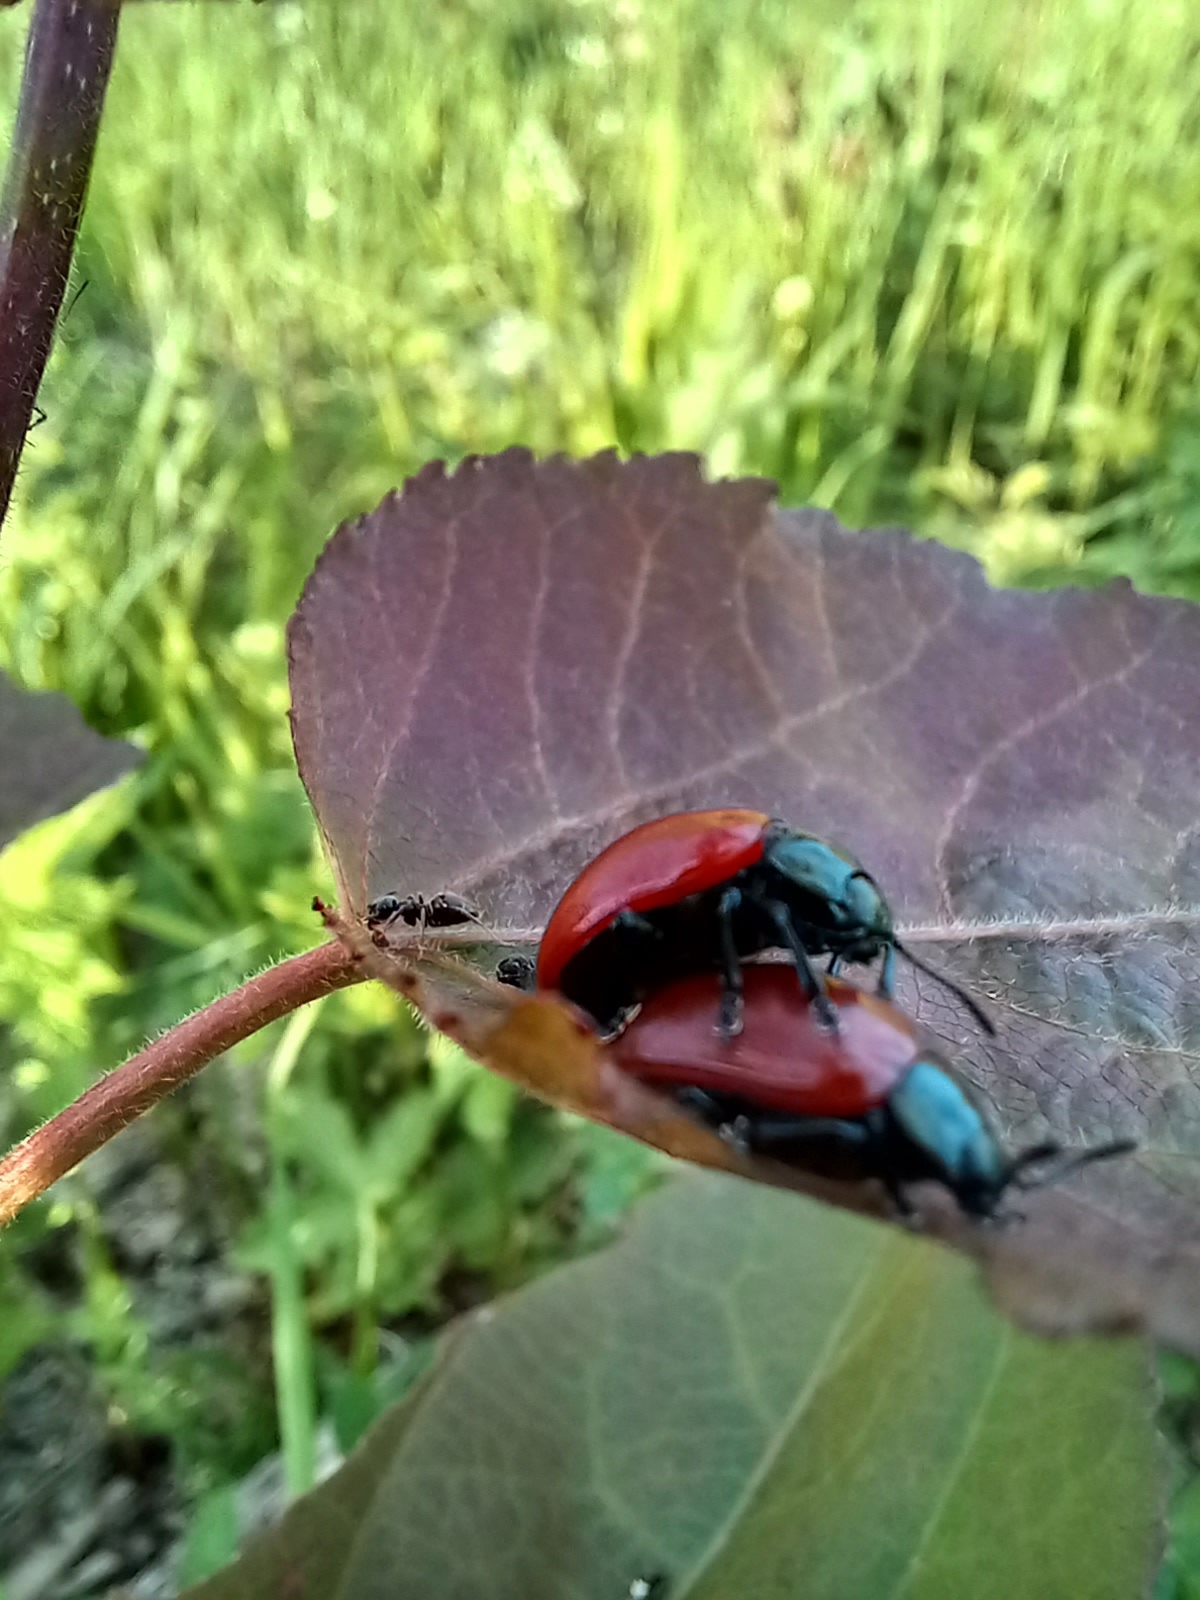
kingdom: Animalia
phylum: Arthropoda
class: Insecta
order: Coleoptera
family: Chrysomelidae
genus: Chrysomela
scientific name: Chrysomela populi
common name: Red poplar leaf beetle
